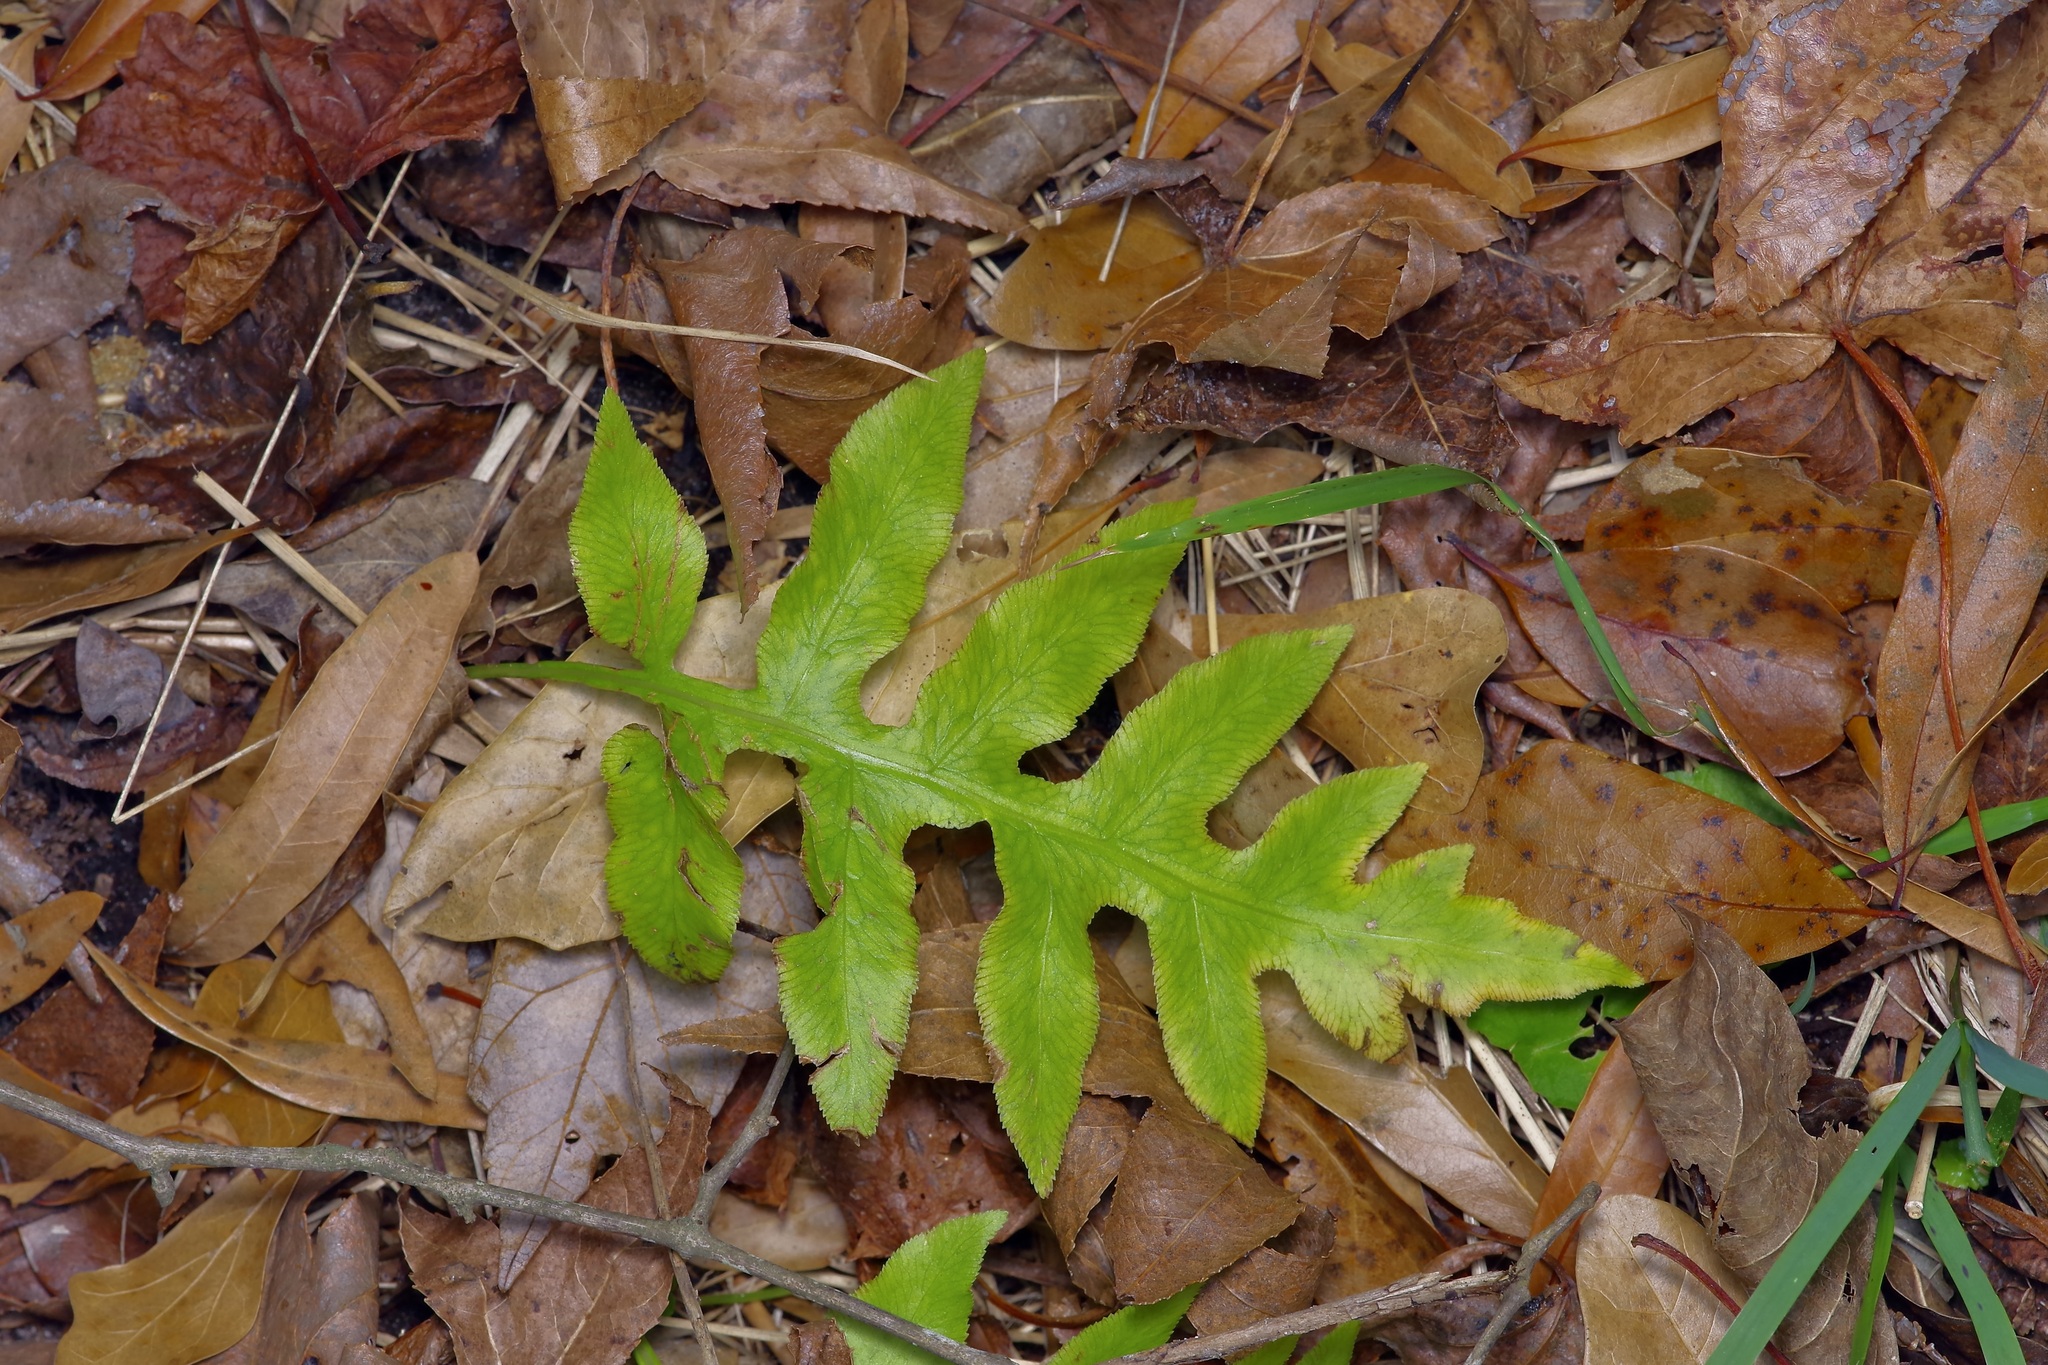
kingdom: Plantae
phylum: Tracheophyta
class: Polypodiopsida
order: Polypodiales
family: Blechnaceae
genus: Lorinseria
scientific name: Lorinseria areolata
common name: Dwarf chain fern
